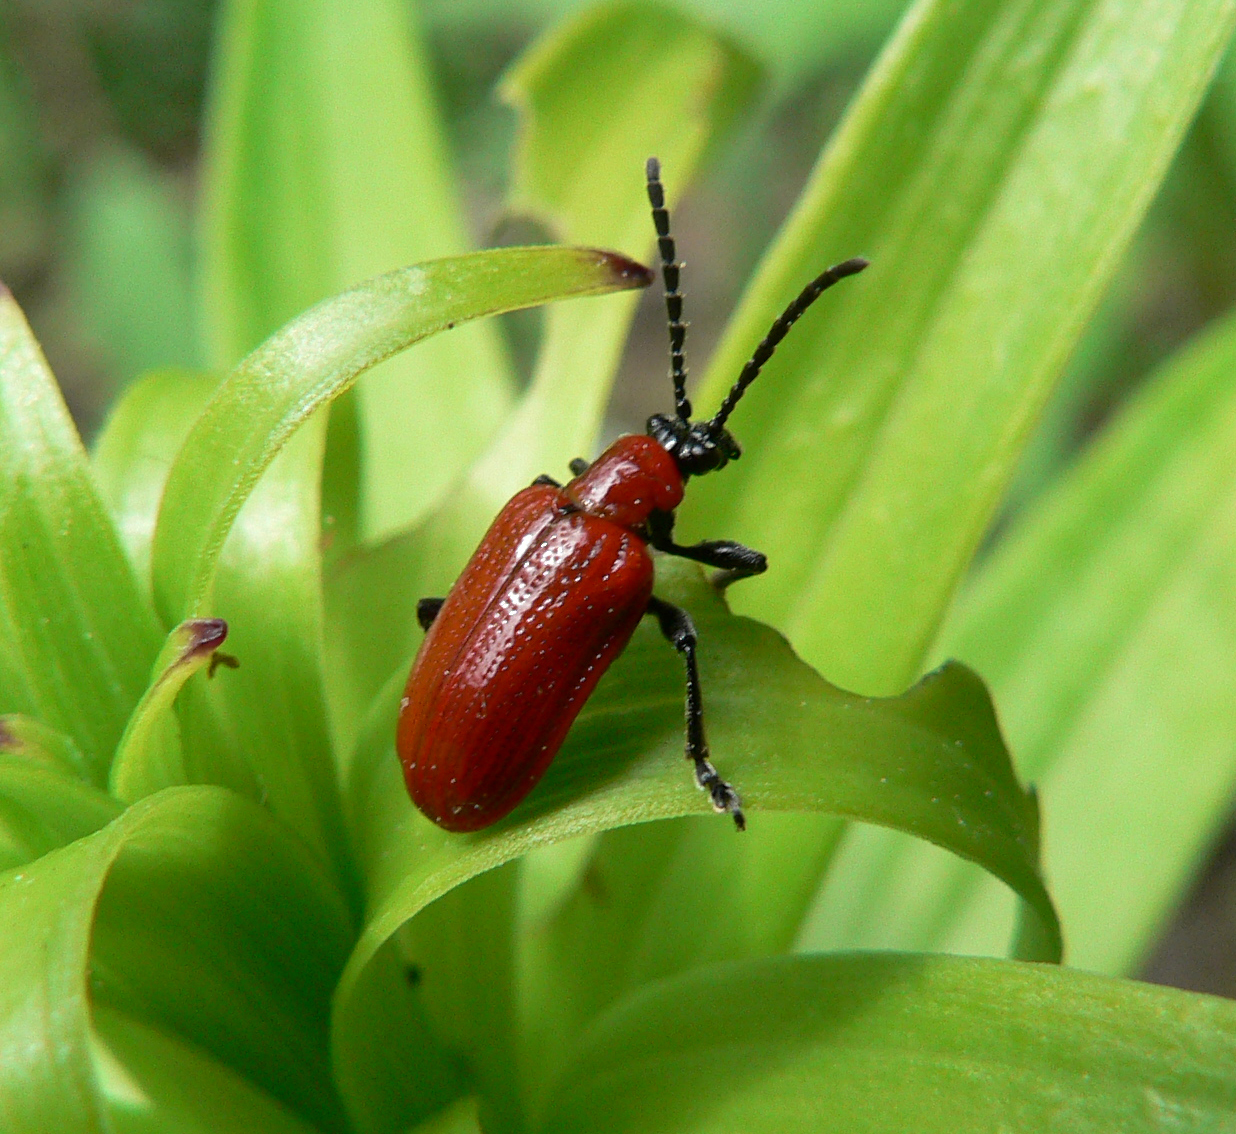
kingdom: Animalia
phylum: Arthropoda
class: Insecta
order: Coleoptera
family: Chrysomelidae
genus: Lilioceris
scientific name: Lilioceris lilii
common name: Lily beetle
